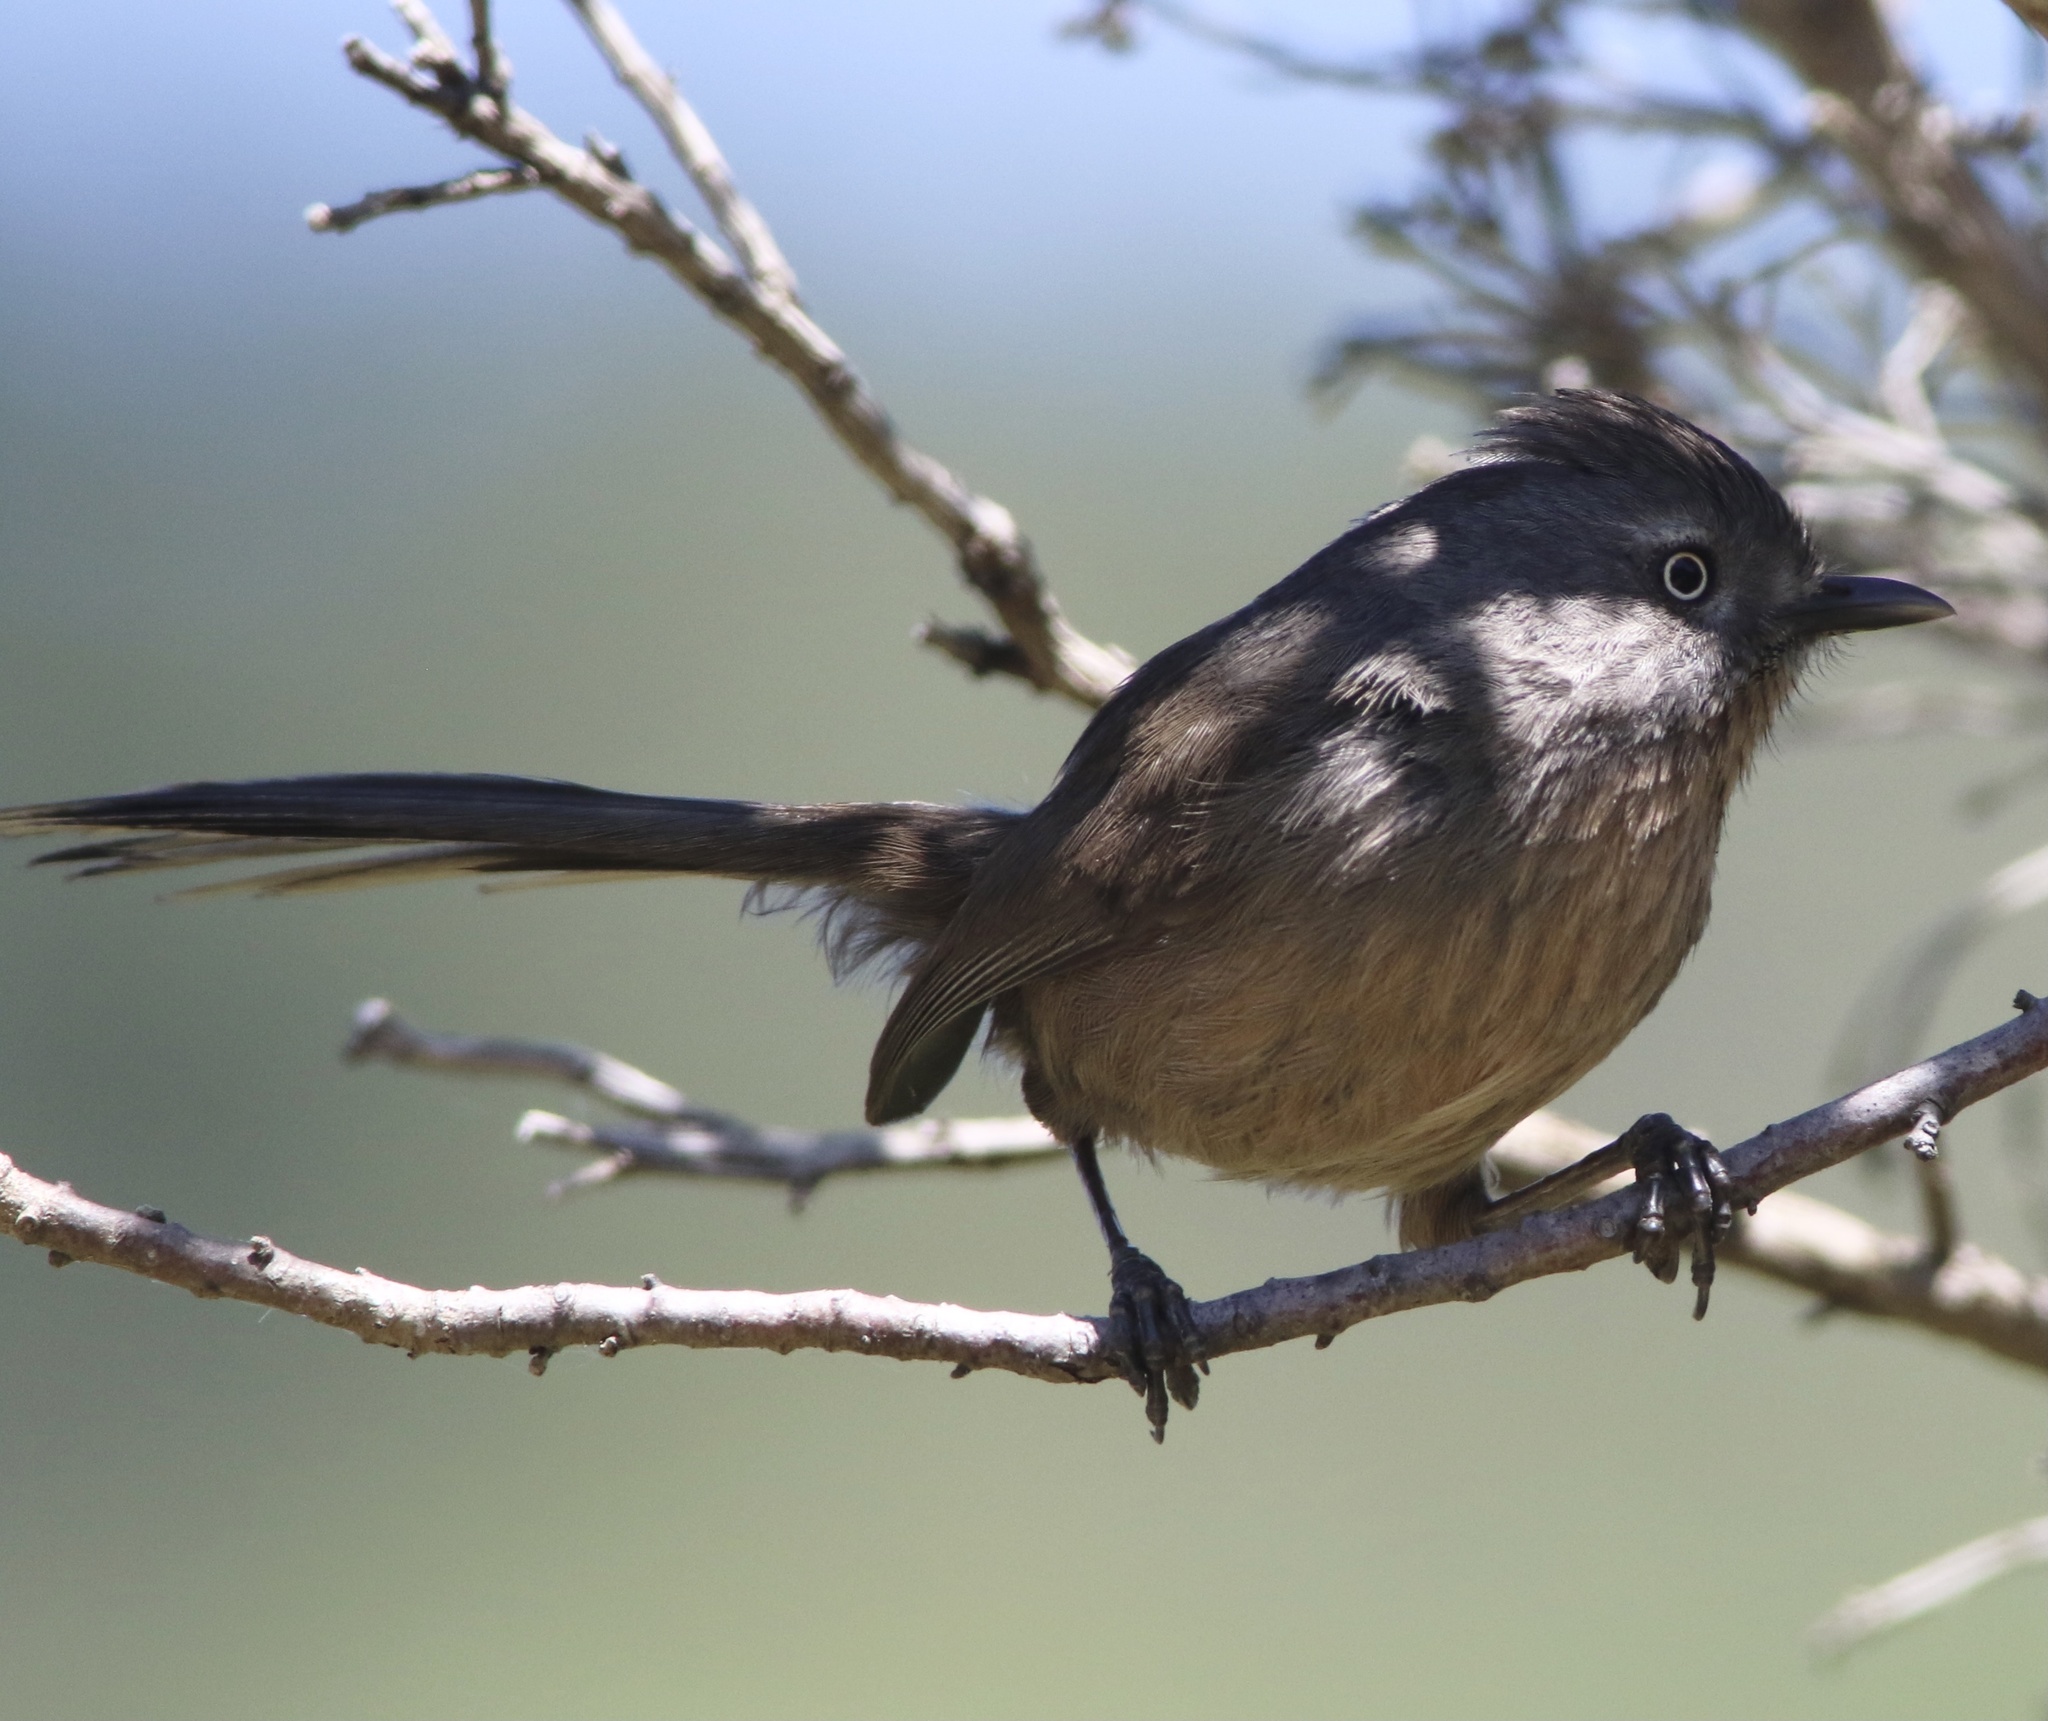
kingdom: Animalia
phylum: Chordata
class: Aves
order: Passeriformes
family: Sylviidae
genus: Chamaea
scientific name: Chamaea fasciata
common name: Wrentit
